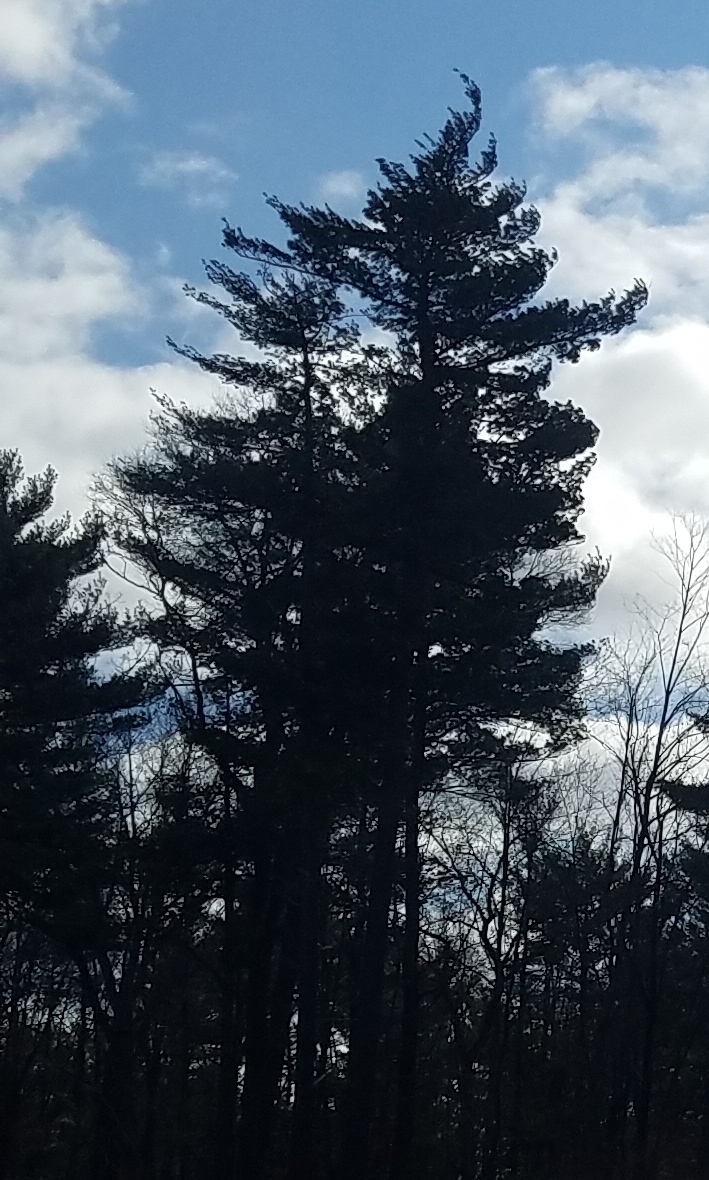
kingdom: Plantae
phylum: Tracheophyta
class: Pinopsida
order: Pinales
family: Pinaceae
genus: Pinus
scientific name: Pinus strobus
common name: Weymouth pine
